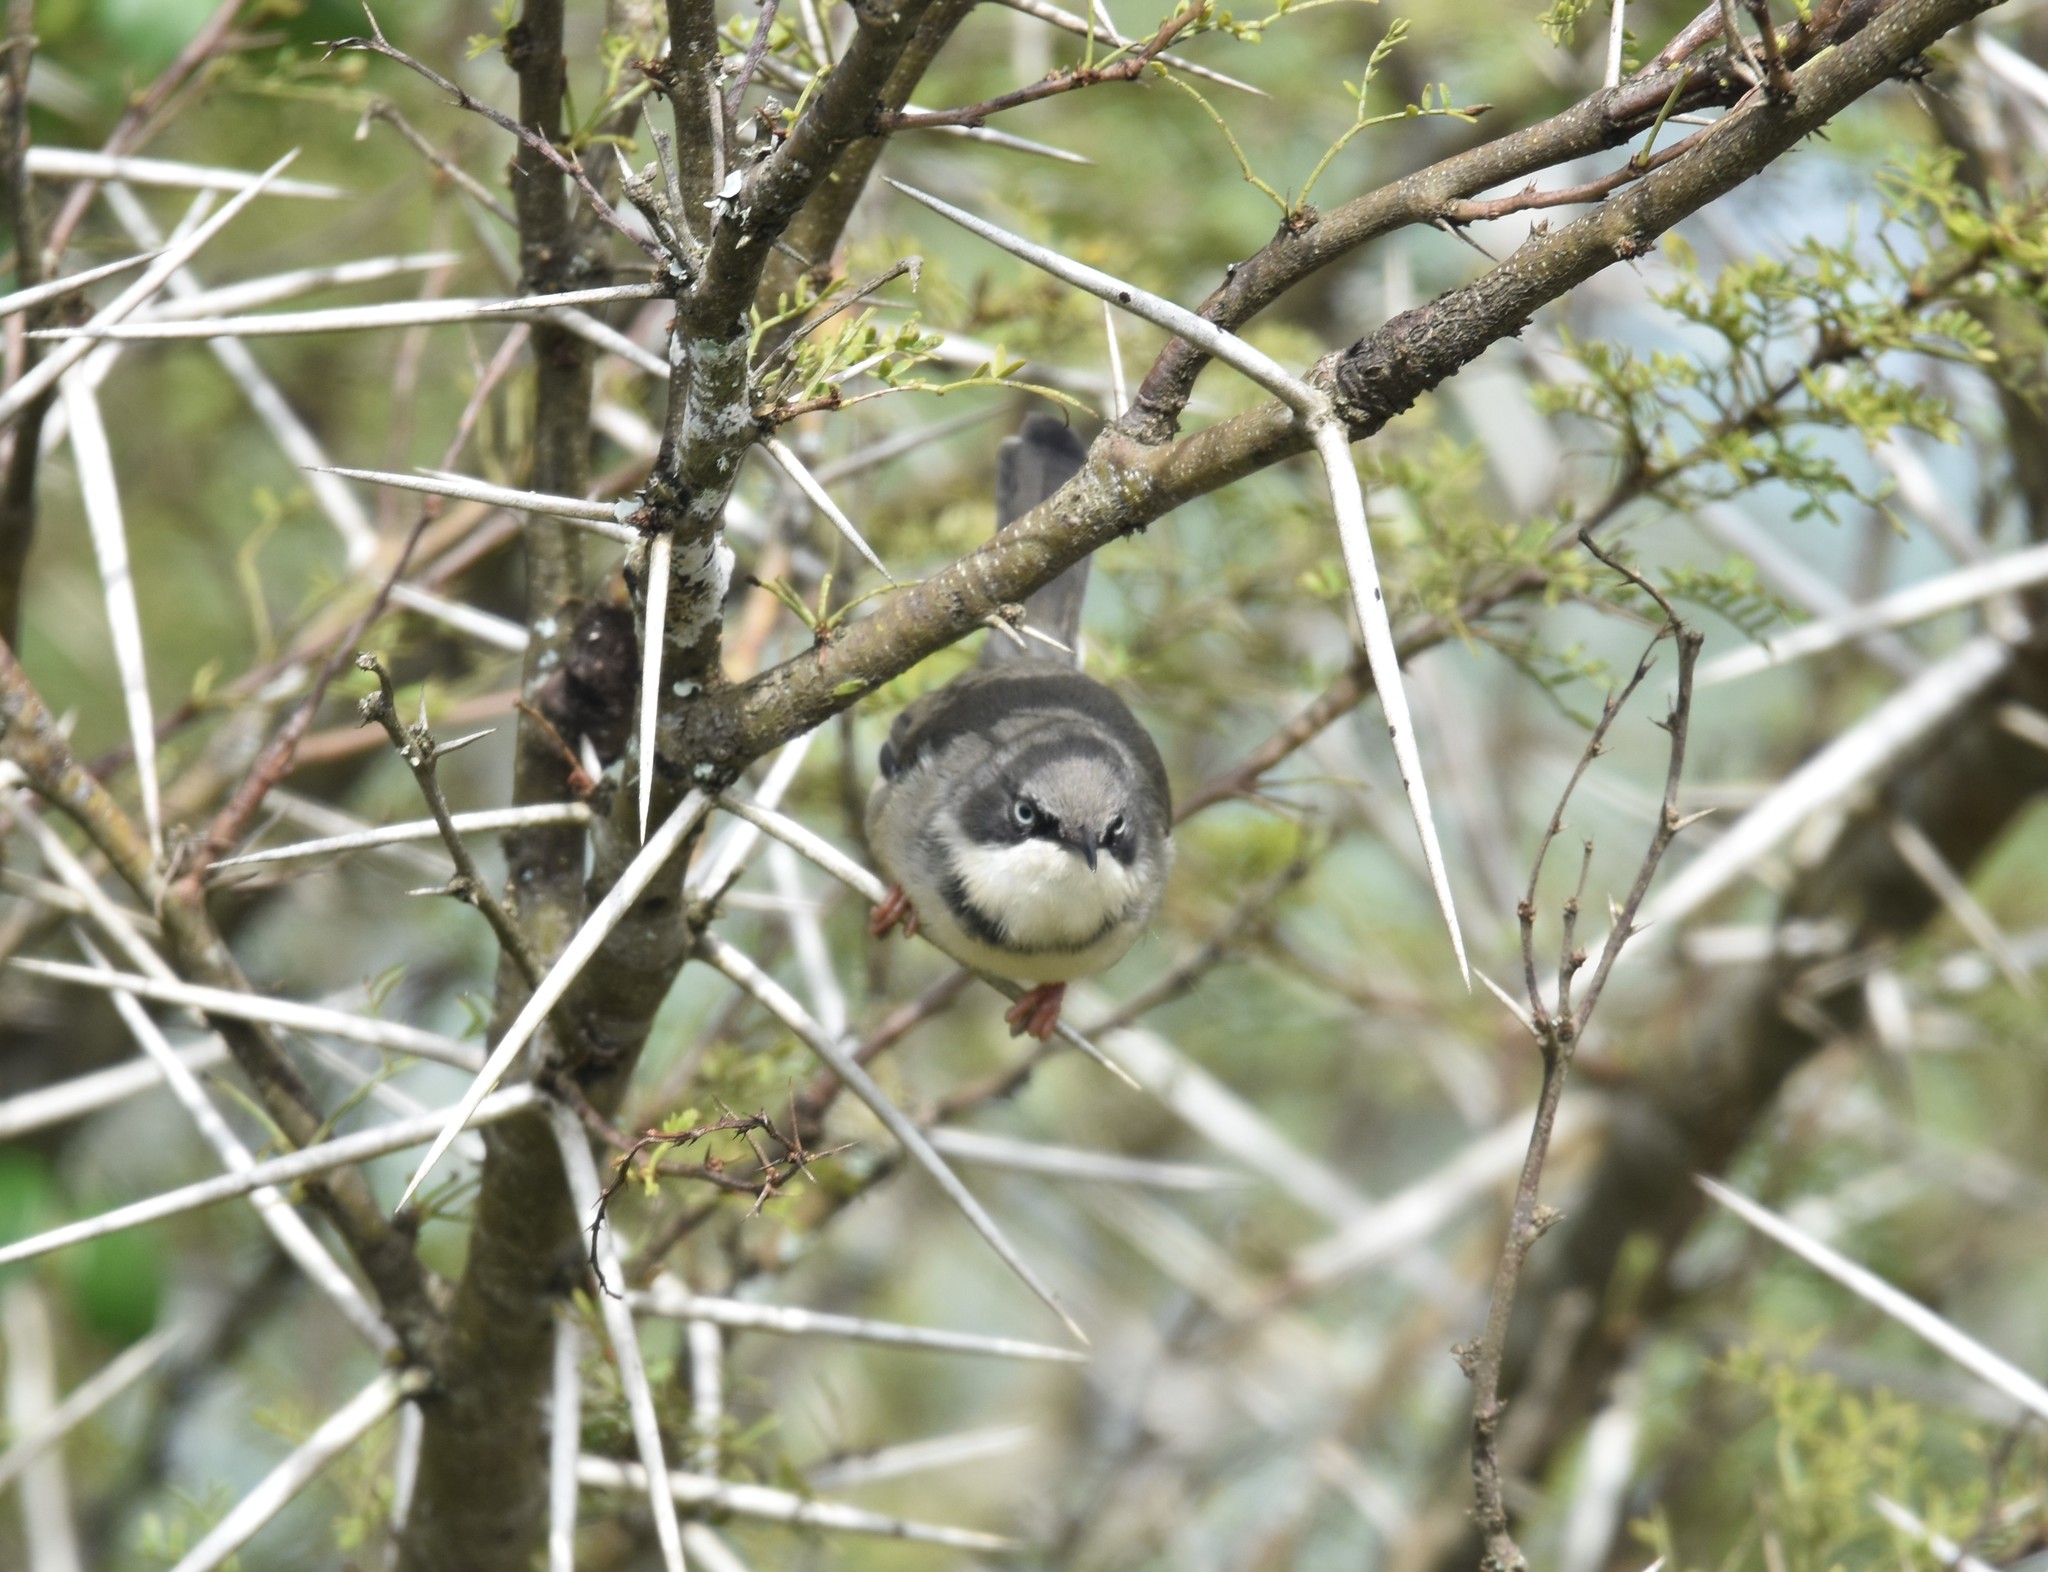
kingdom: Animalia
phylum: Chordata
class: Aves
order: Passeriformes
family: Cisticolidae
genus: Apalis
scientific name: Apalis thoracica
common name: Bar-throated apalis
